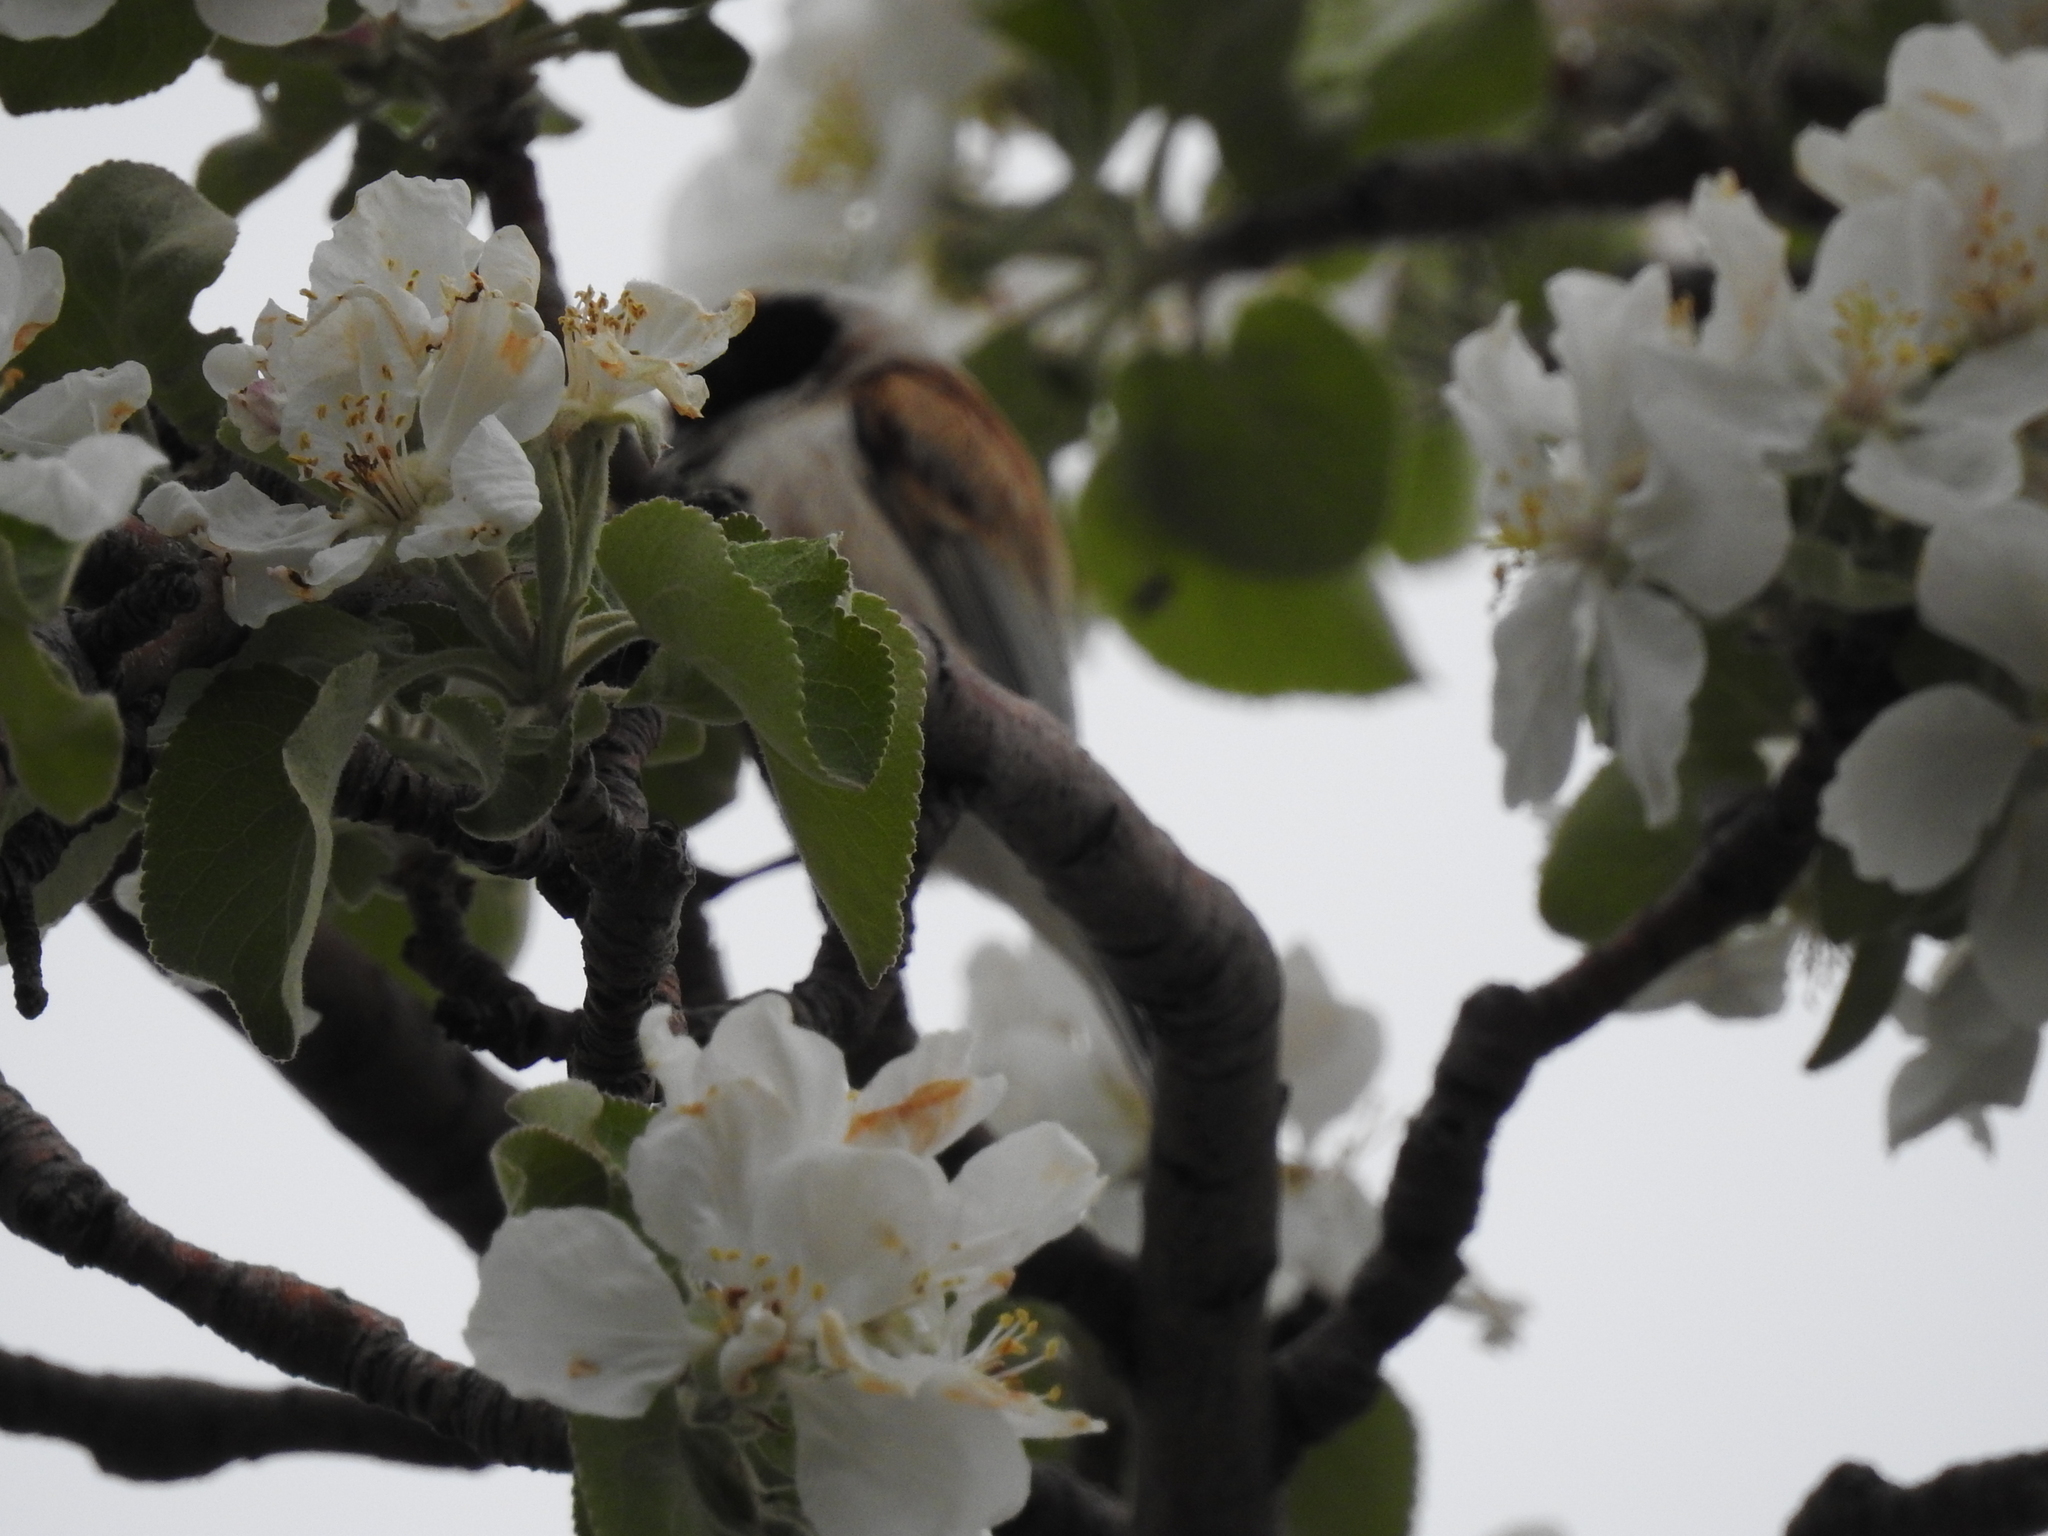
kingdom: Animalia
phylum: Chordata
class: Aves
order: Passeriformes
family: Remizidae
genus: Remiz
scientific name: Remiz pendulinus
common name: Eurasian penduline tit
